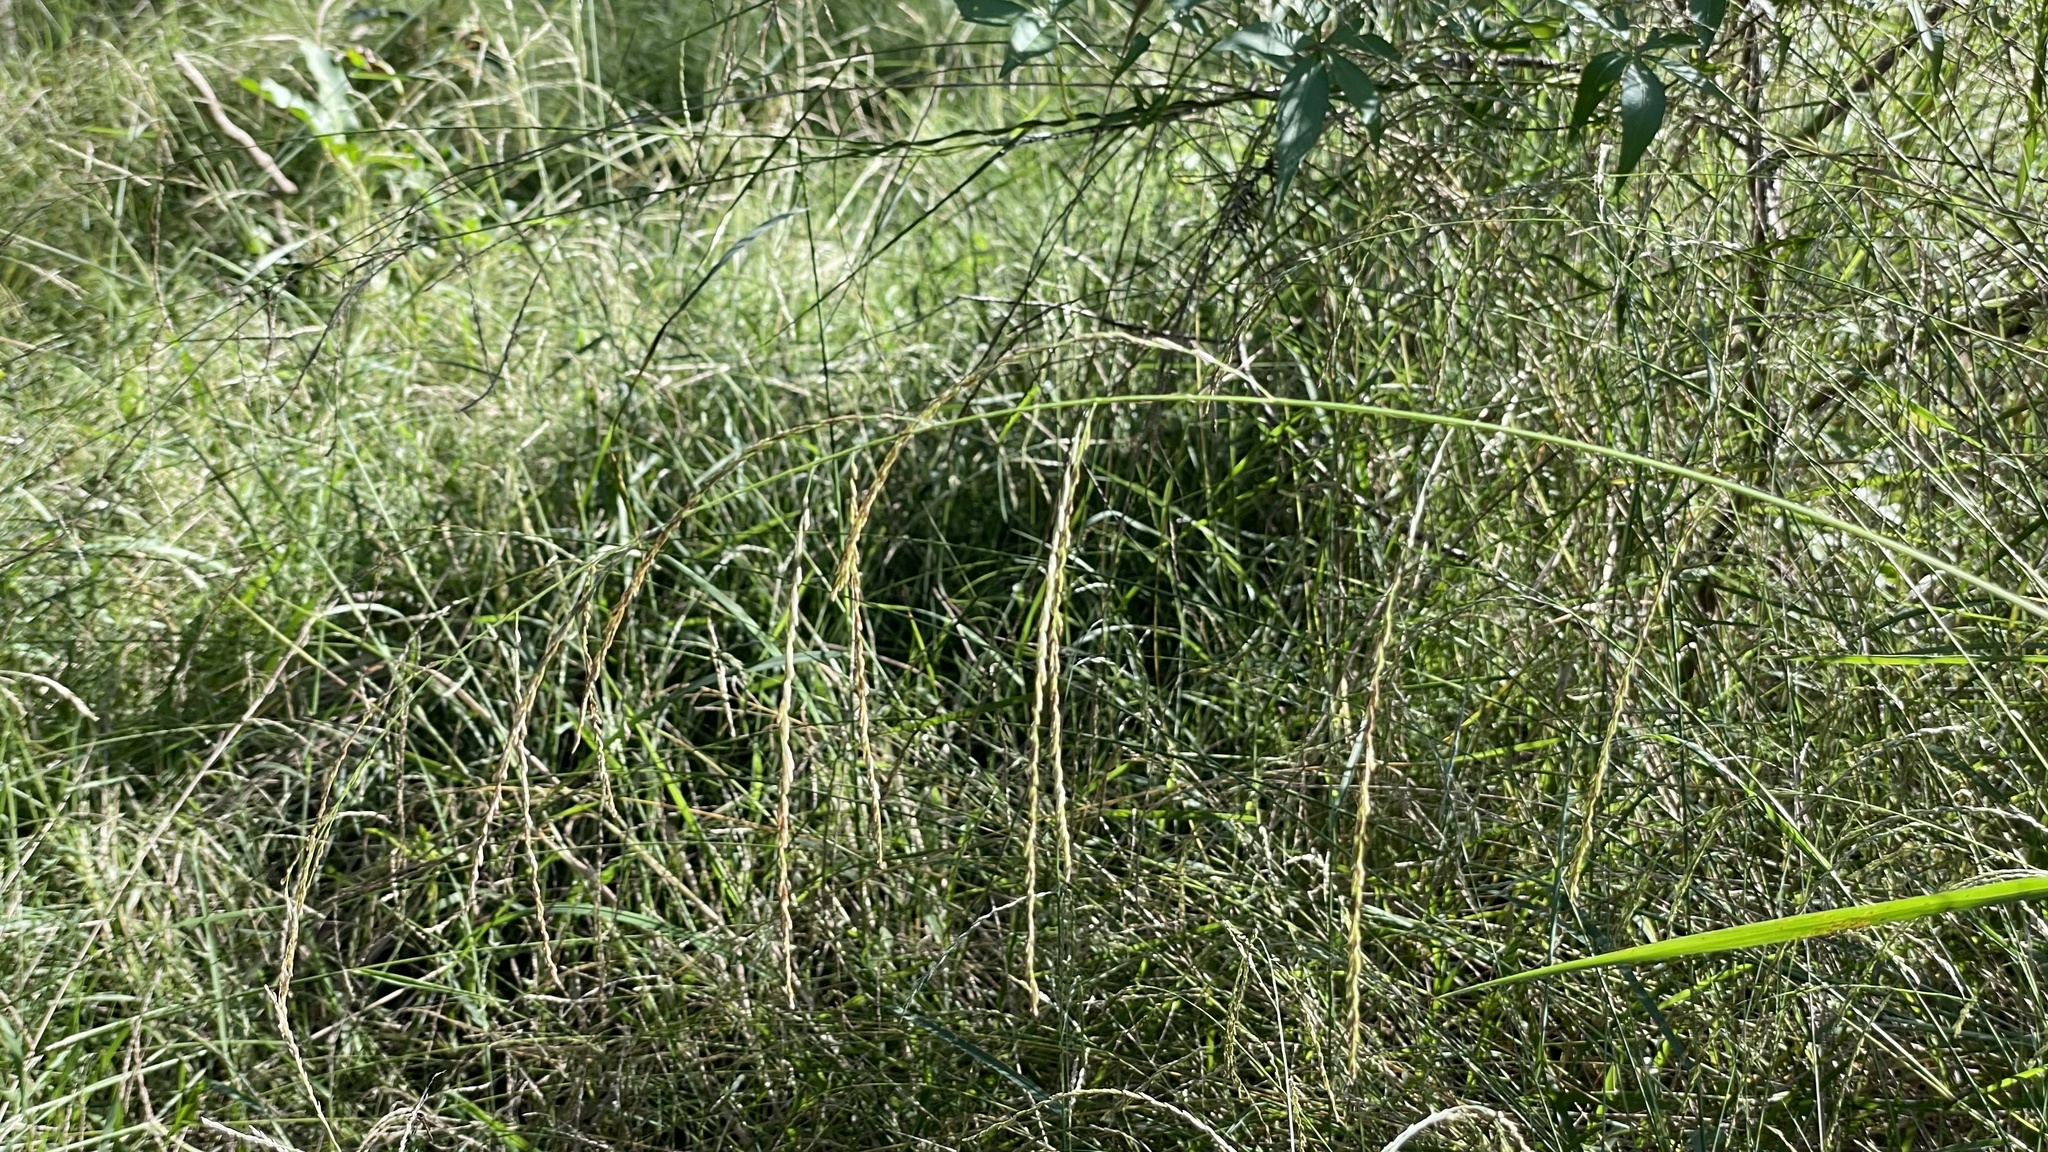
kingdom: Plantae
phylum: Tracheophyta
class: Liliopsida
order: Poales
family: Poaceae
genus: Leptochloa
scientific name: Leptochloa decipiens
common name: Australian sprangletop
